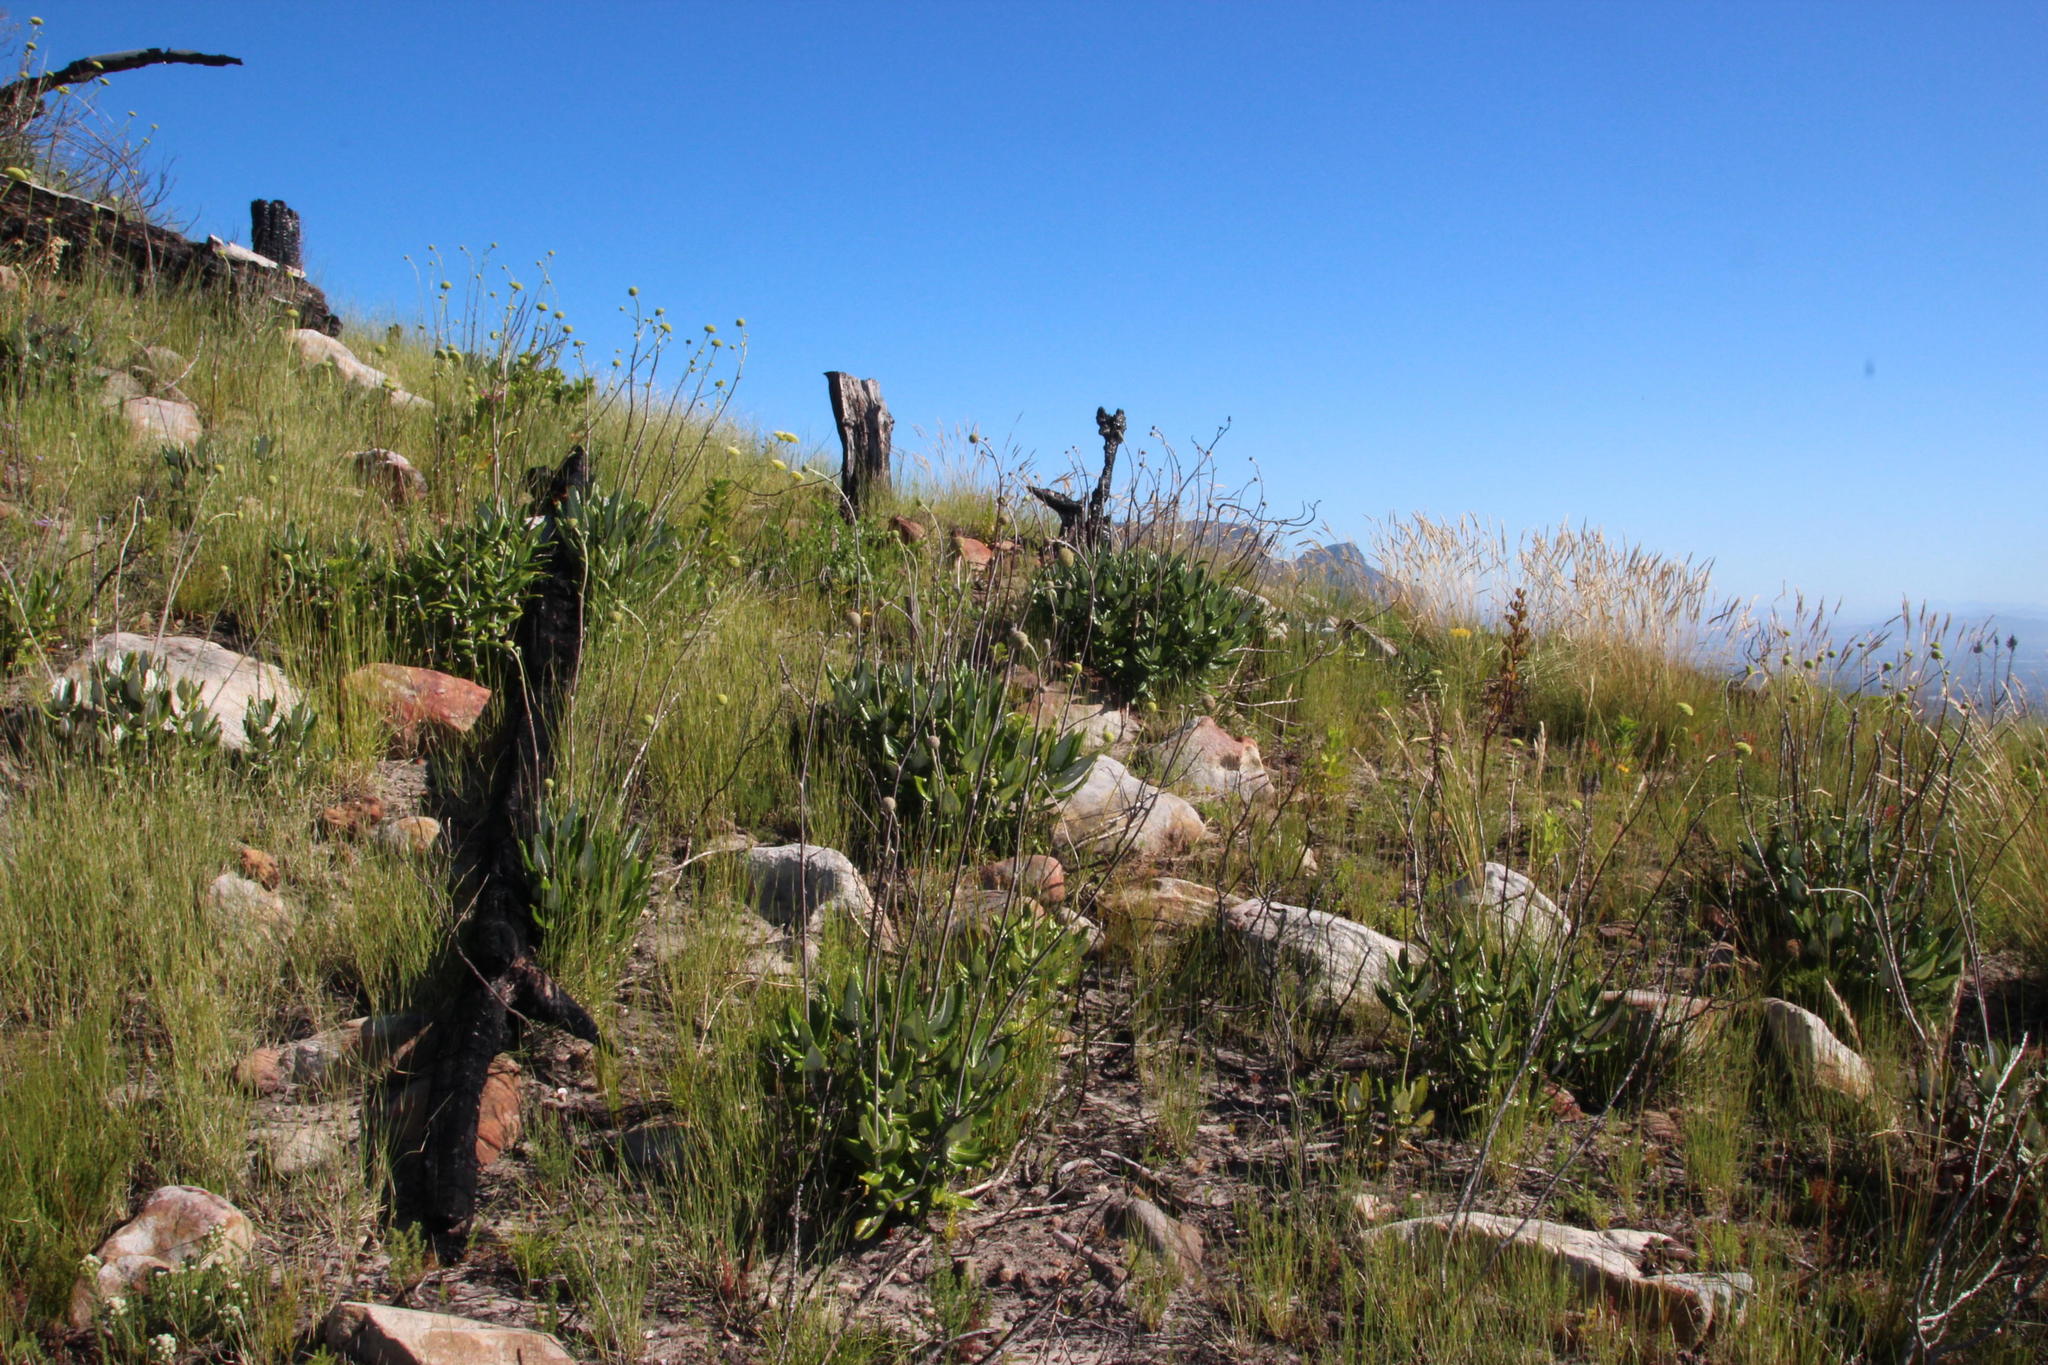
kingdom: Plantae
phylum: Tracheophyta
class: Magnoliopsida
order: Apiales
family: Apiaceae
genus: Hermas
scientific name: Hermas villosa
